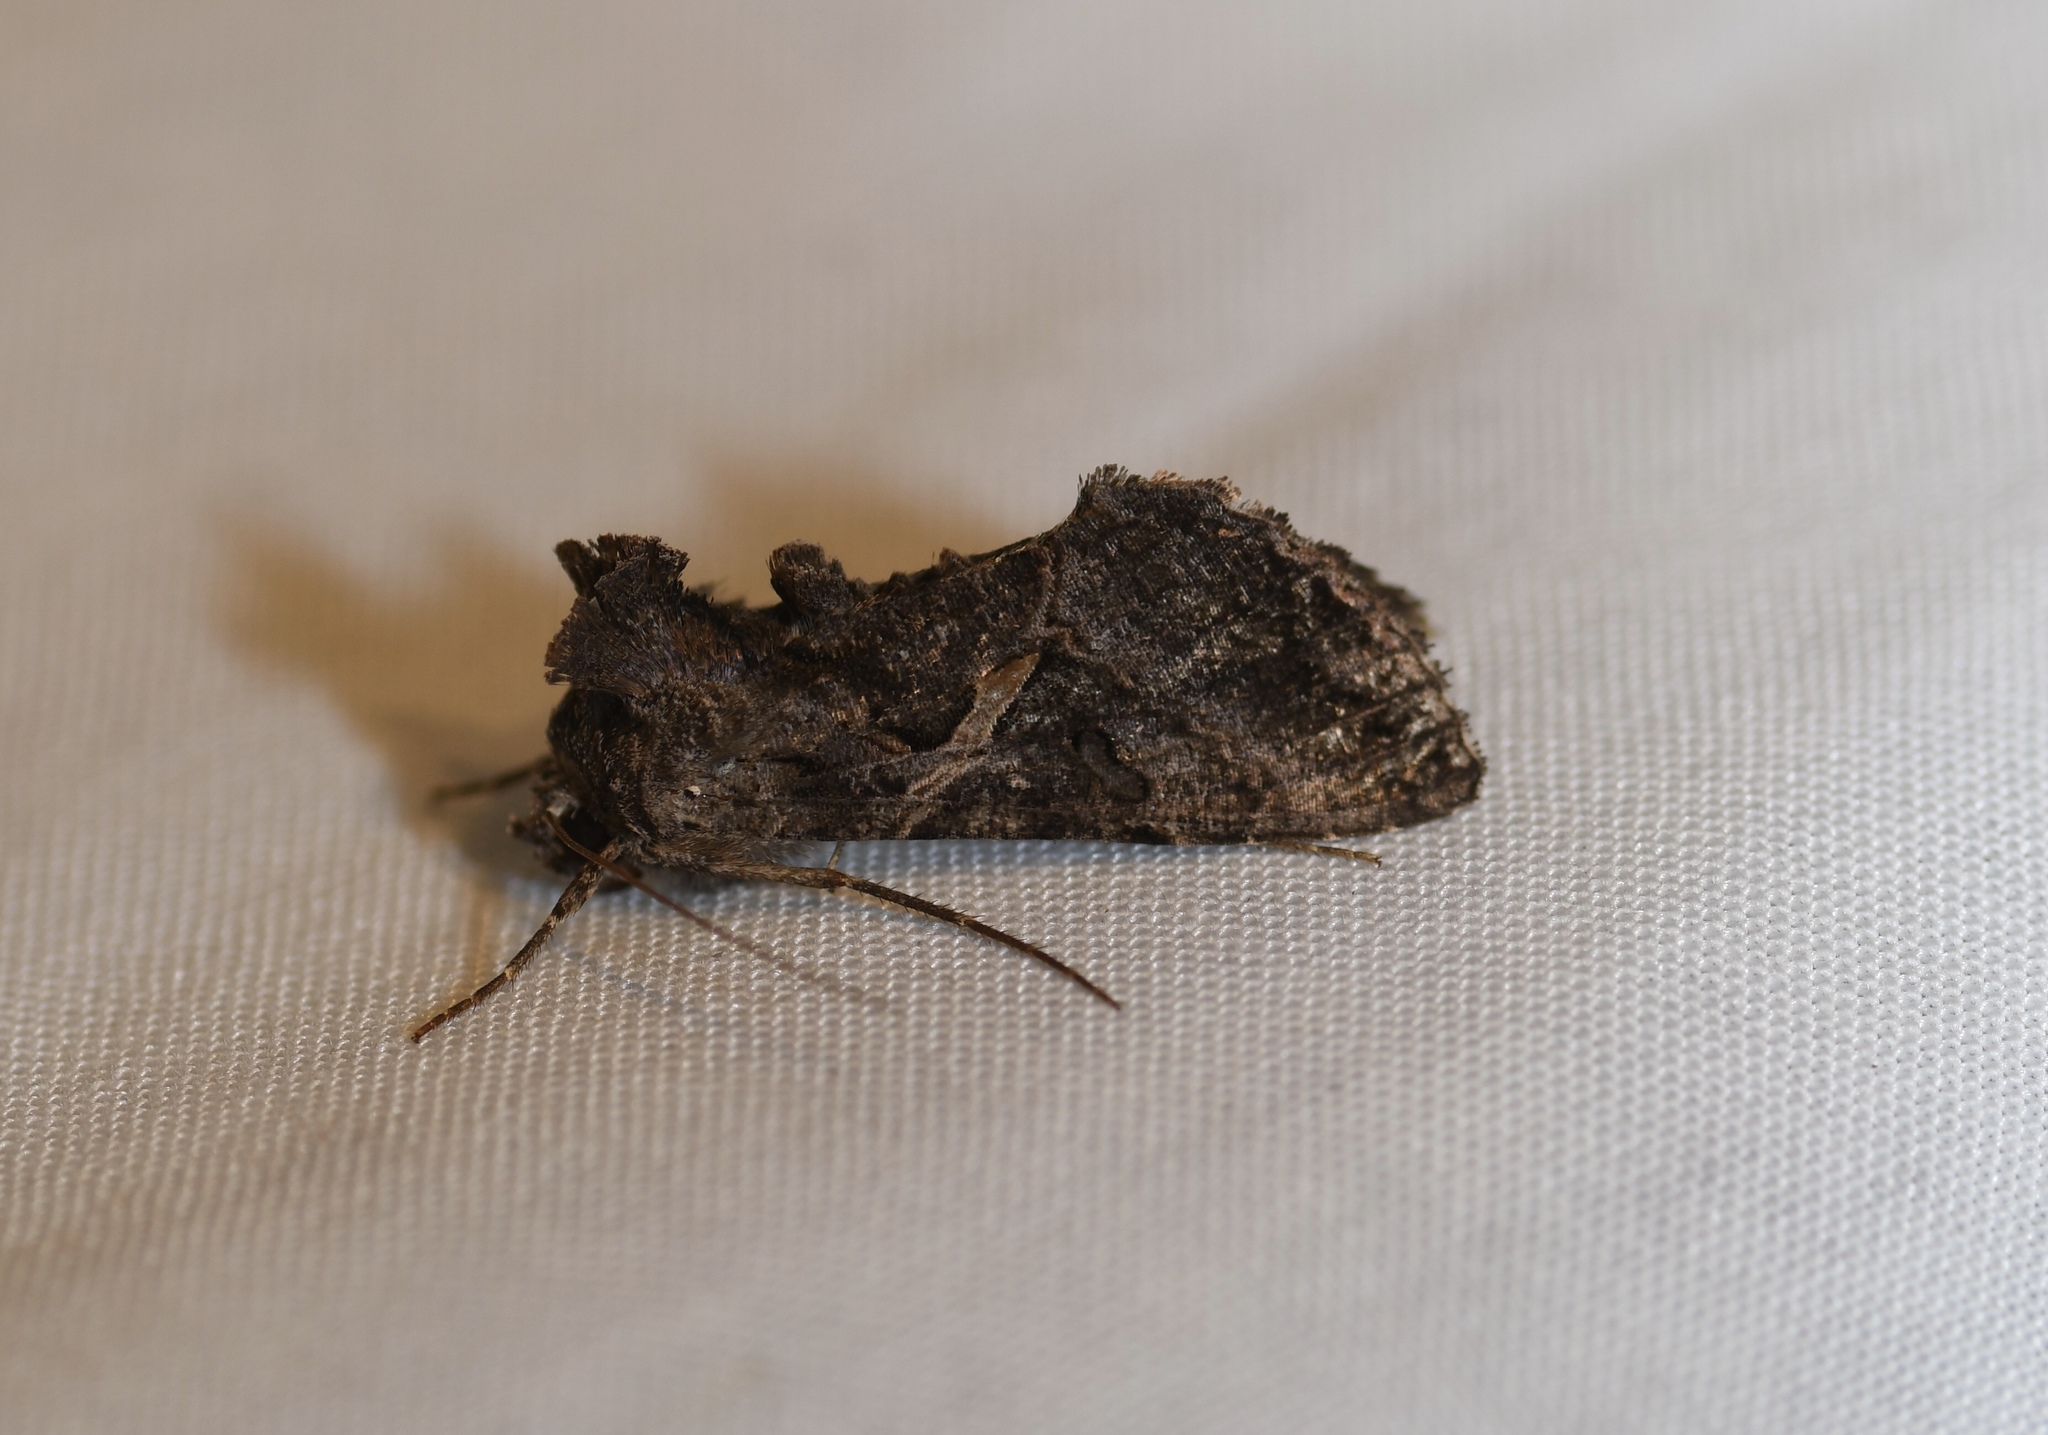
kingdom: Animalia
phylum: Arthropoda
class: Insecta
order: Lepidoptera
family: Noctuidae
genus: Ctenoplusia
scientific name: Ctenoplusia oxygramma
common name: Sharp-stigma looper moth
